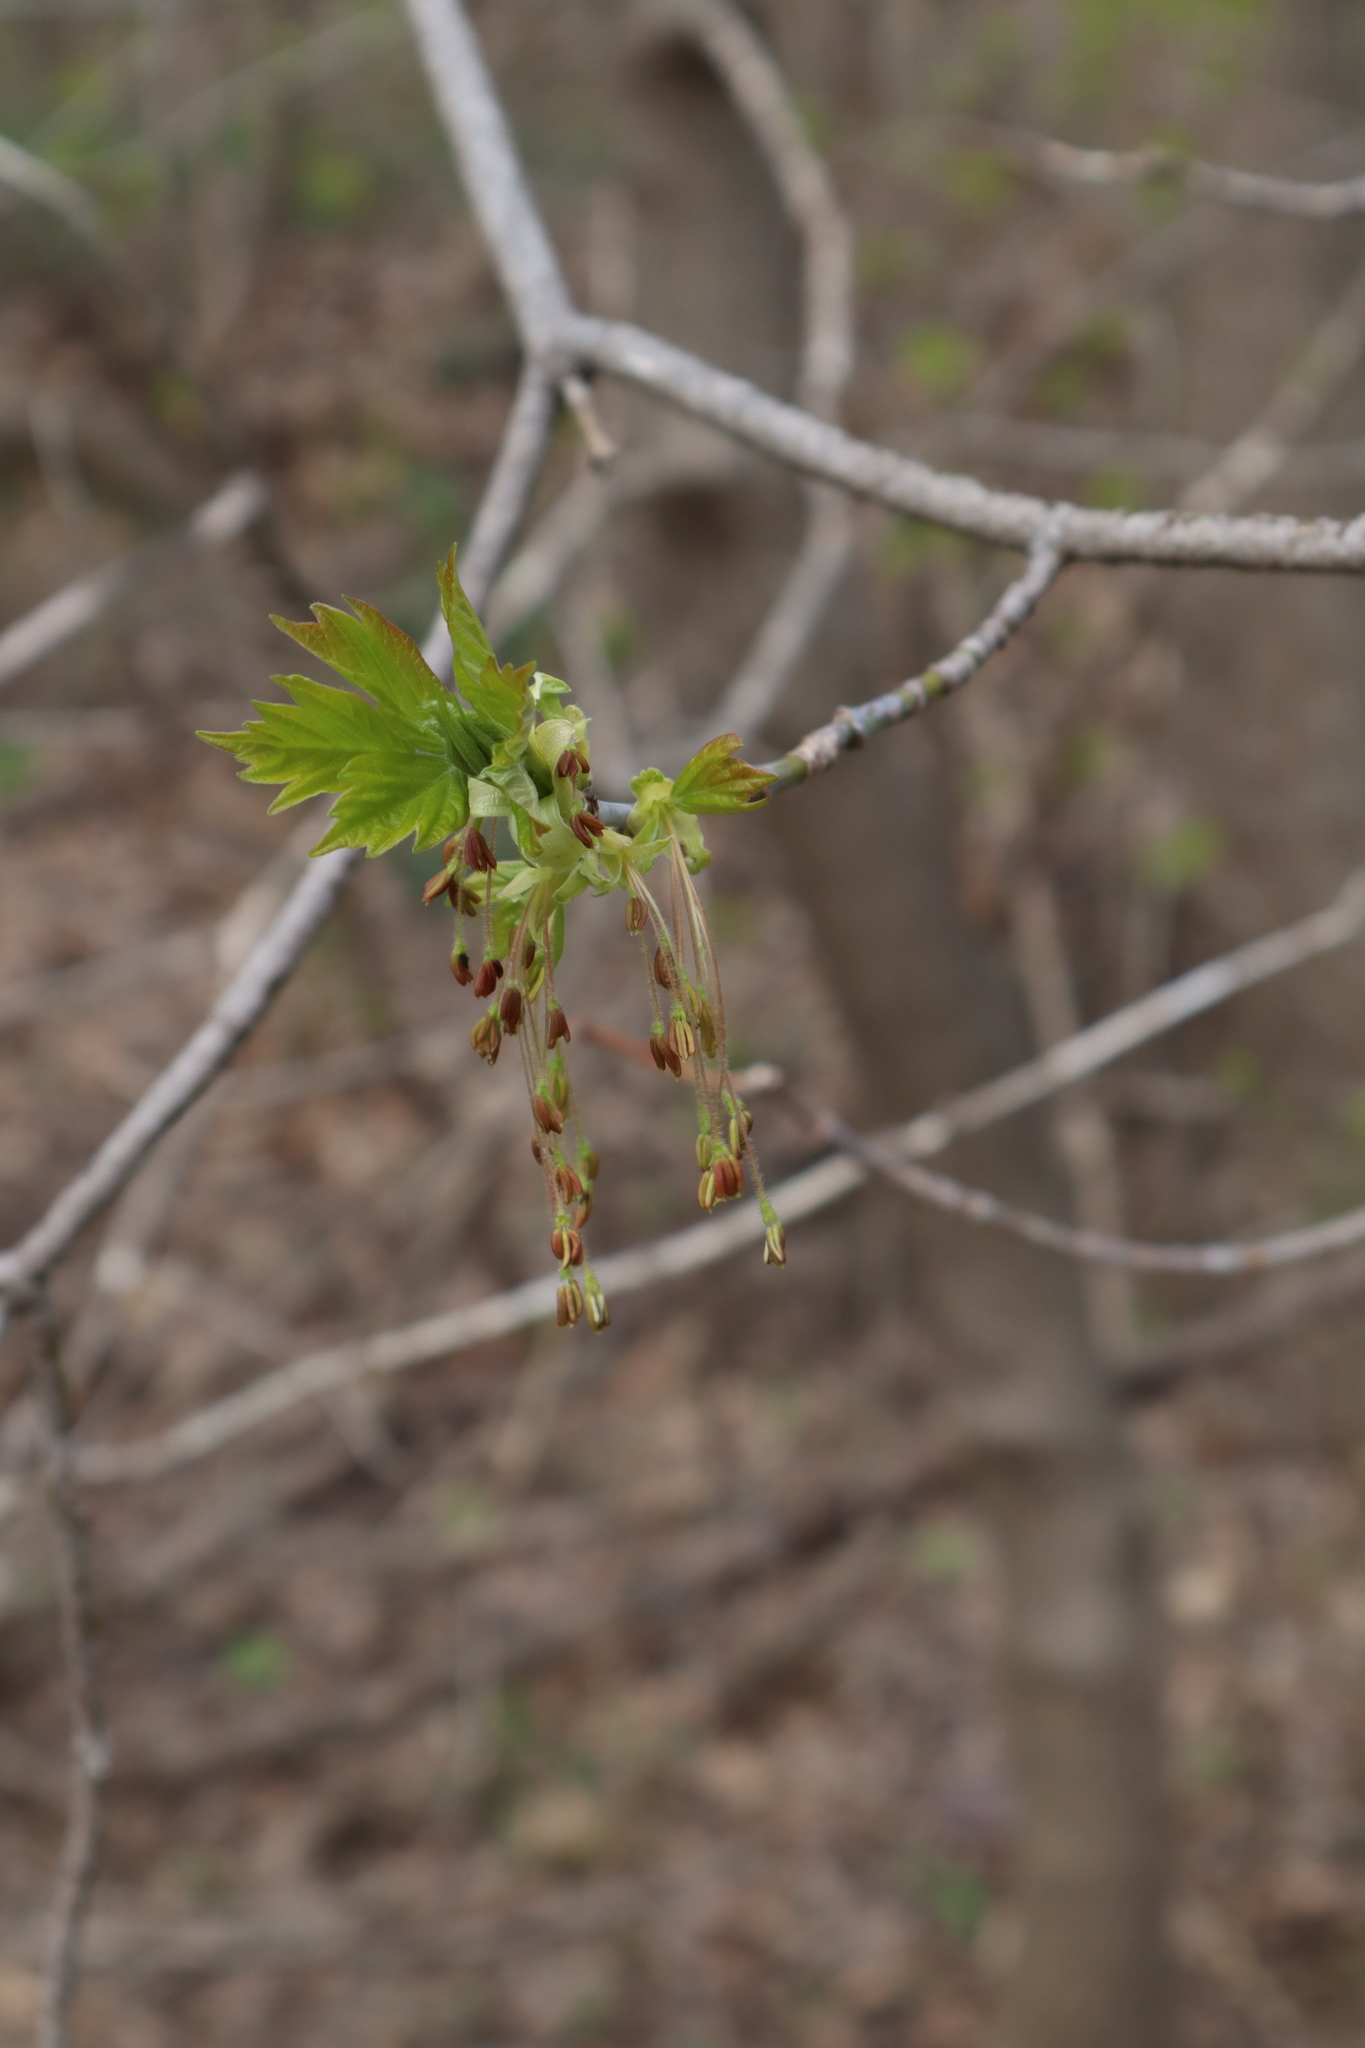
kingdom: Plantae
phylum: Tracheophyta
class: Magnoliopsida
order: Sapindales
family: Sapindaceae
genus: Acer
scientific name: Acer negundo
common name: Ashleaf maple
